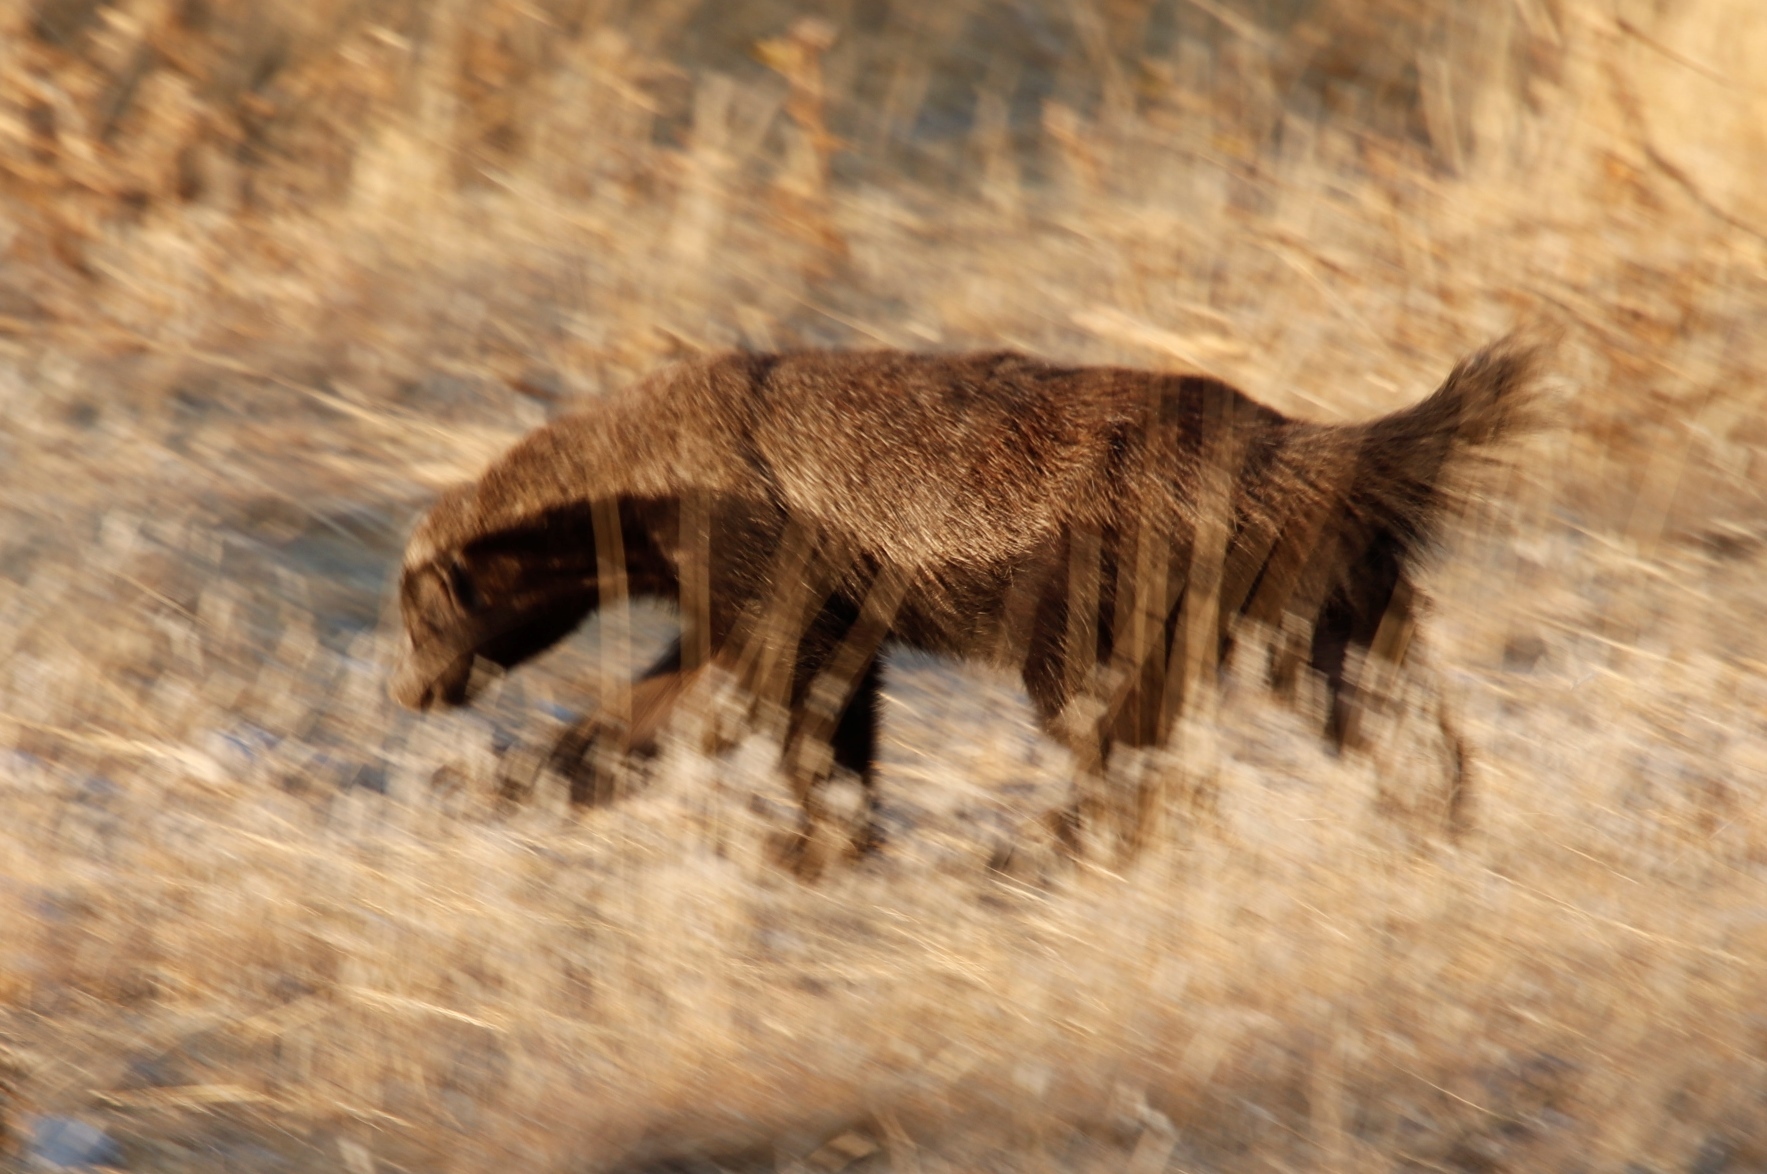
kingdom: Animalia
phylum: Chordata
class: Mammalia
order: Carnivora
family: Mustelidae
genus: Mellivora
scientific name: Mellivora capensis
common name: Honey badger
